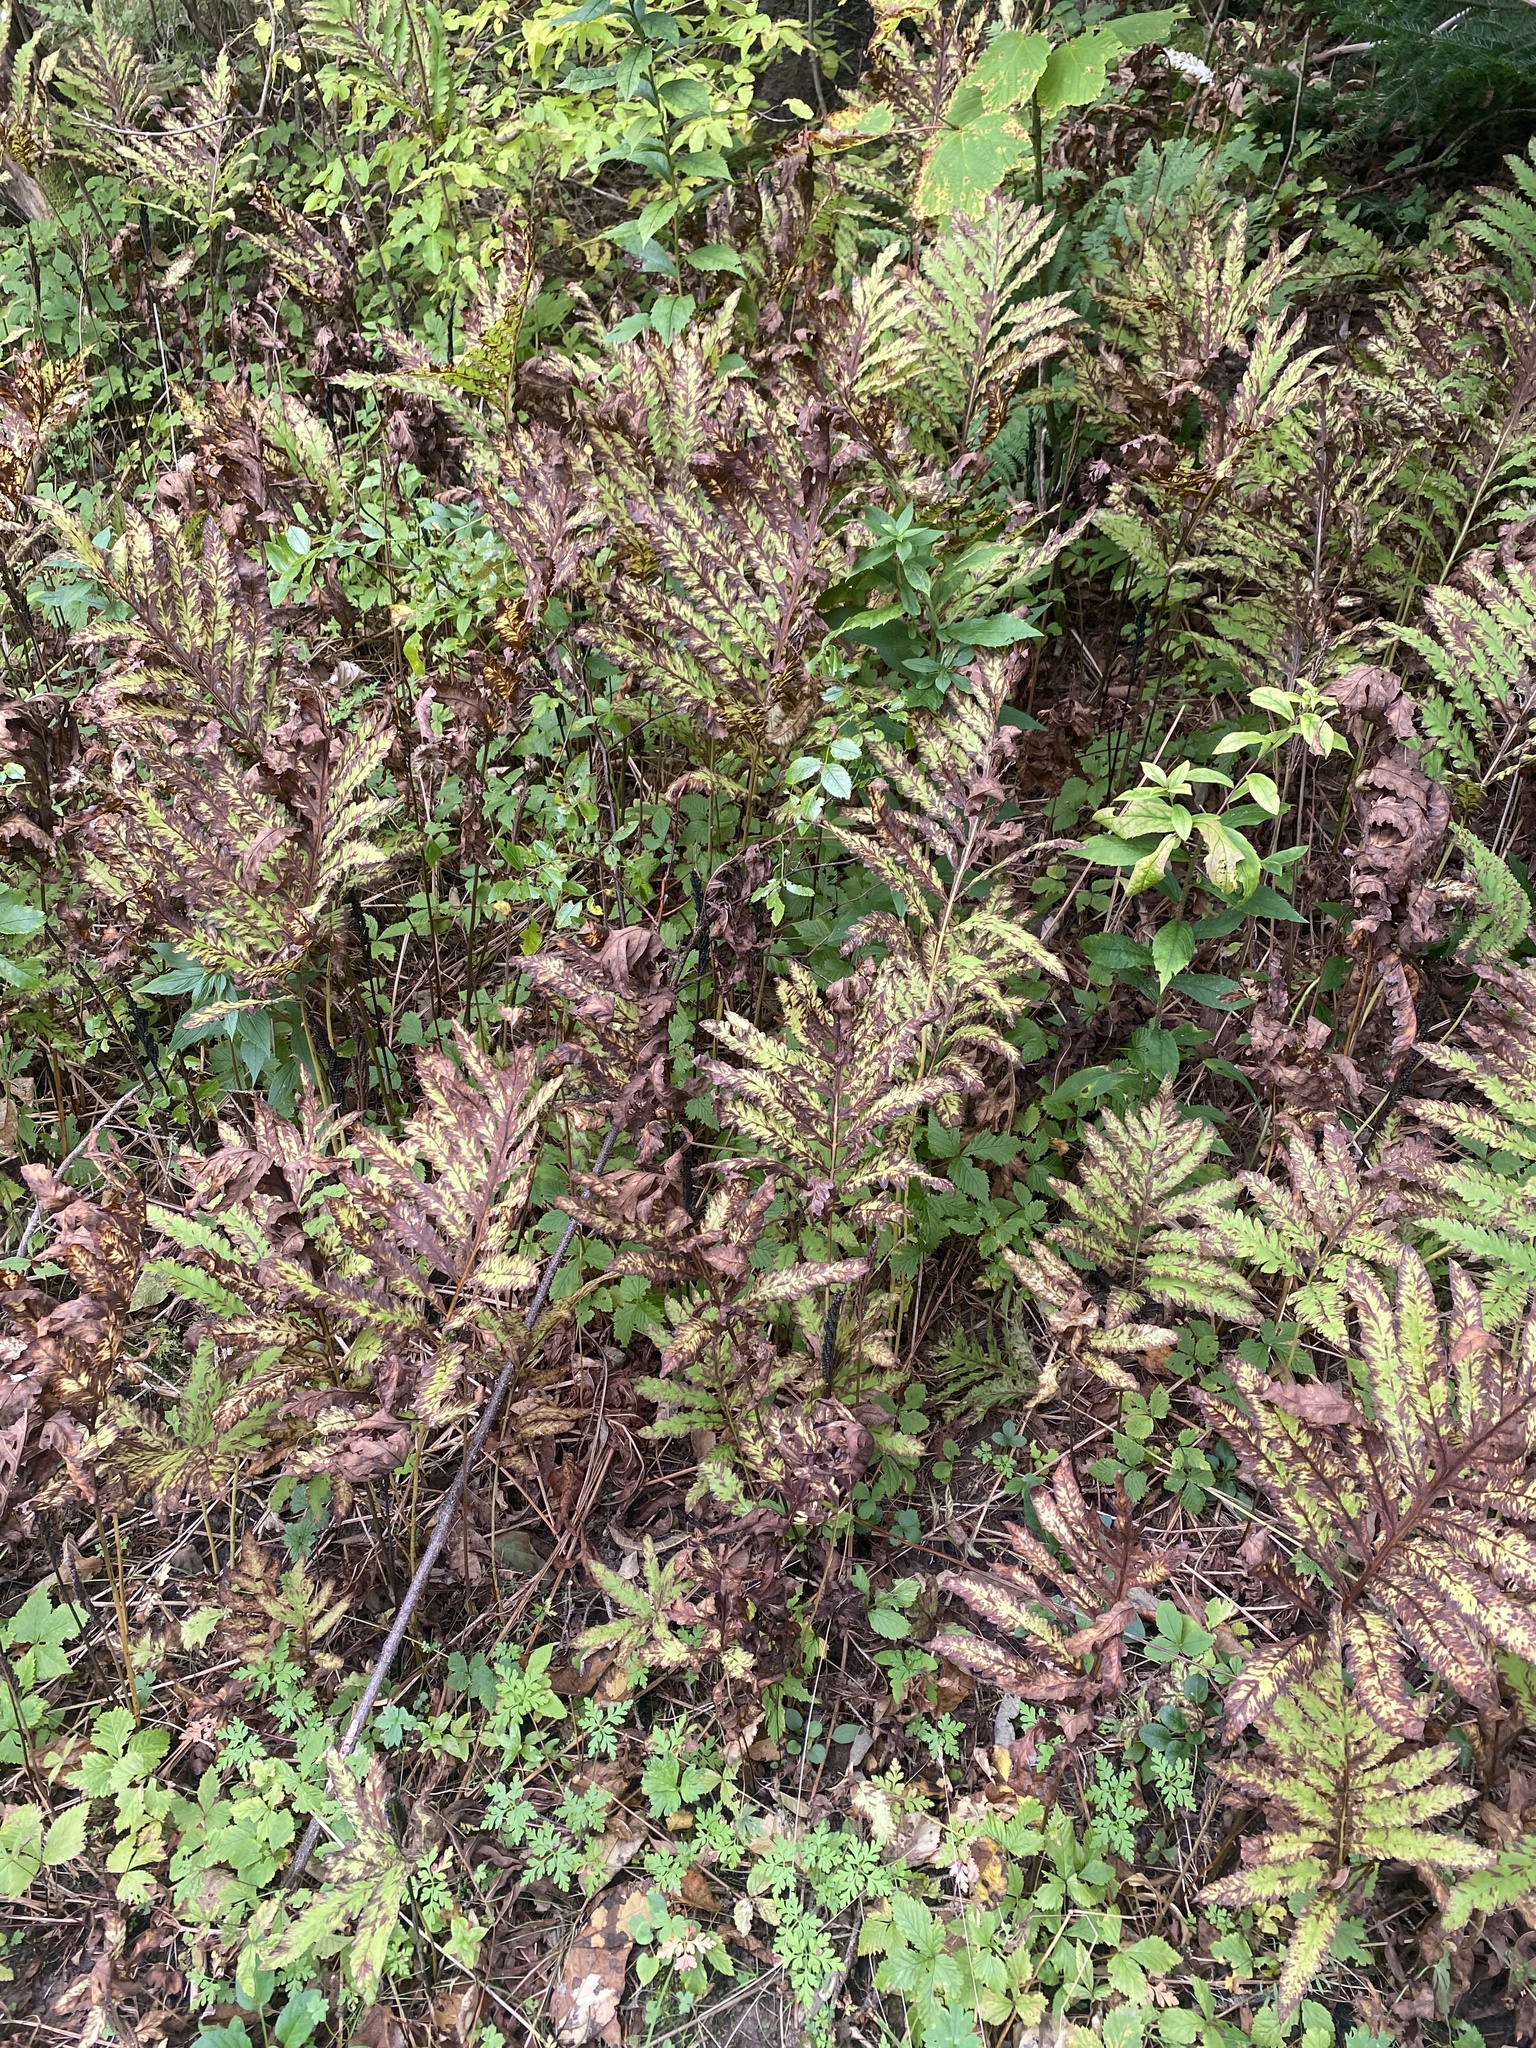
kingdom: Plantae
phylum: Tracheophyta
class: Polypodiopsida
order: Polypodiales
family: Onocleaceae
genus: Onoclea
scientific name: Onoclea sensibilis
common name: Sensitive fern
